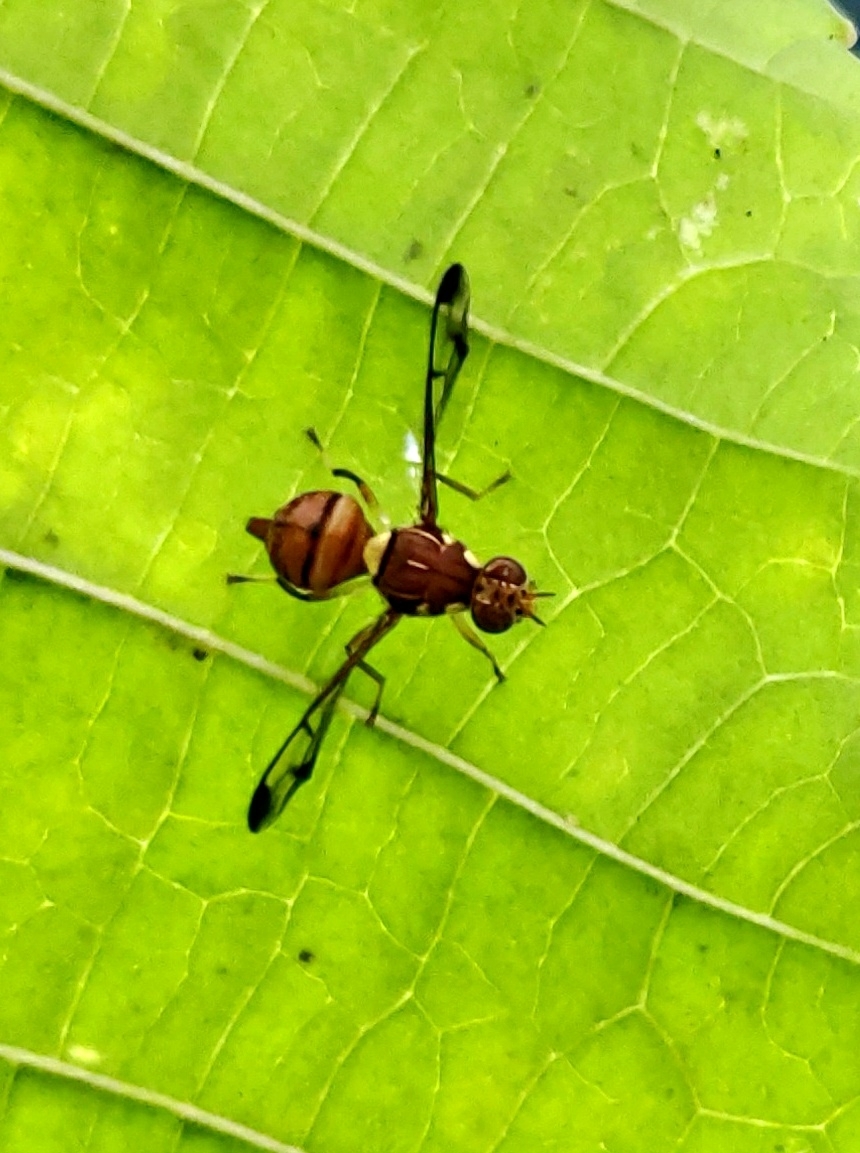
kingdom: Animalia
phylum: Arthropoda
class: Insecta
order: Diptera
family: Tephritidae
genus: Bactrocera
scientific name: Bactrocera cucurbitae
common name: Melon fly
